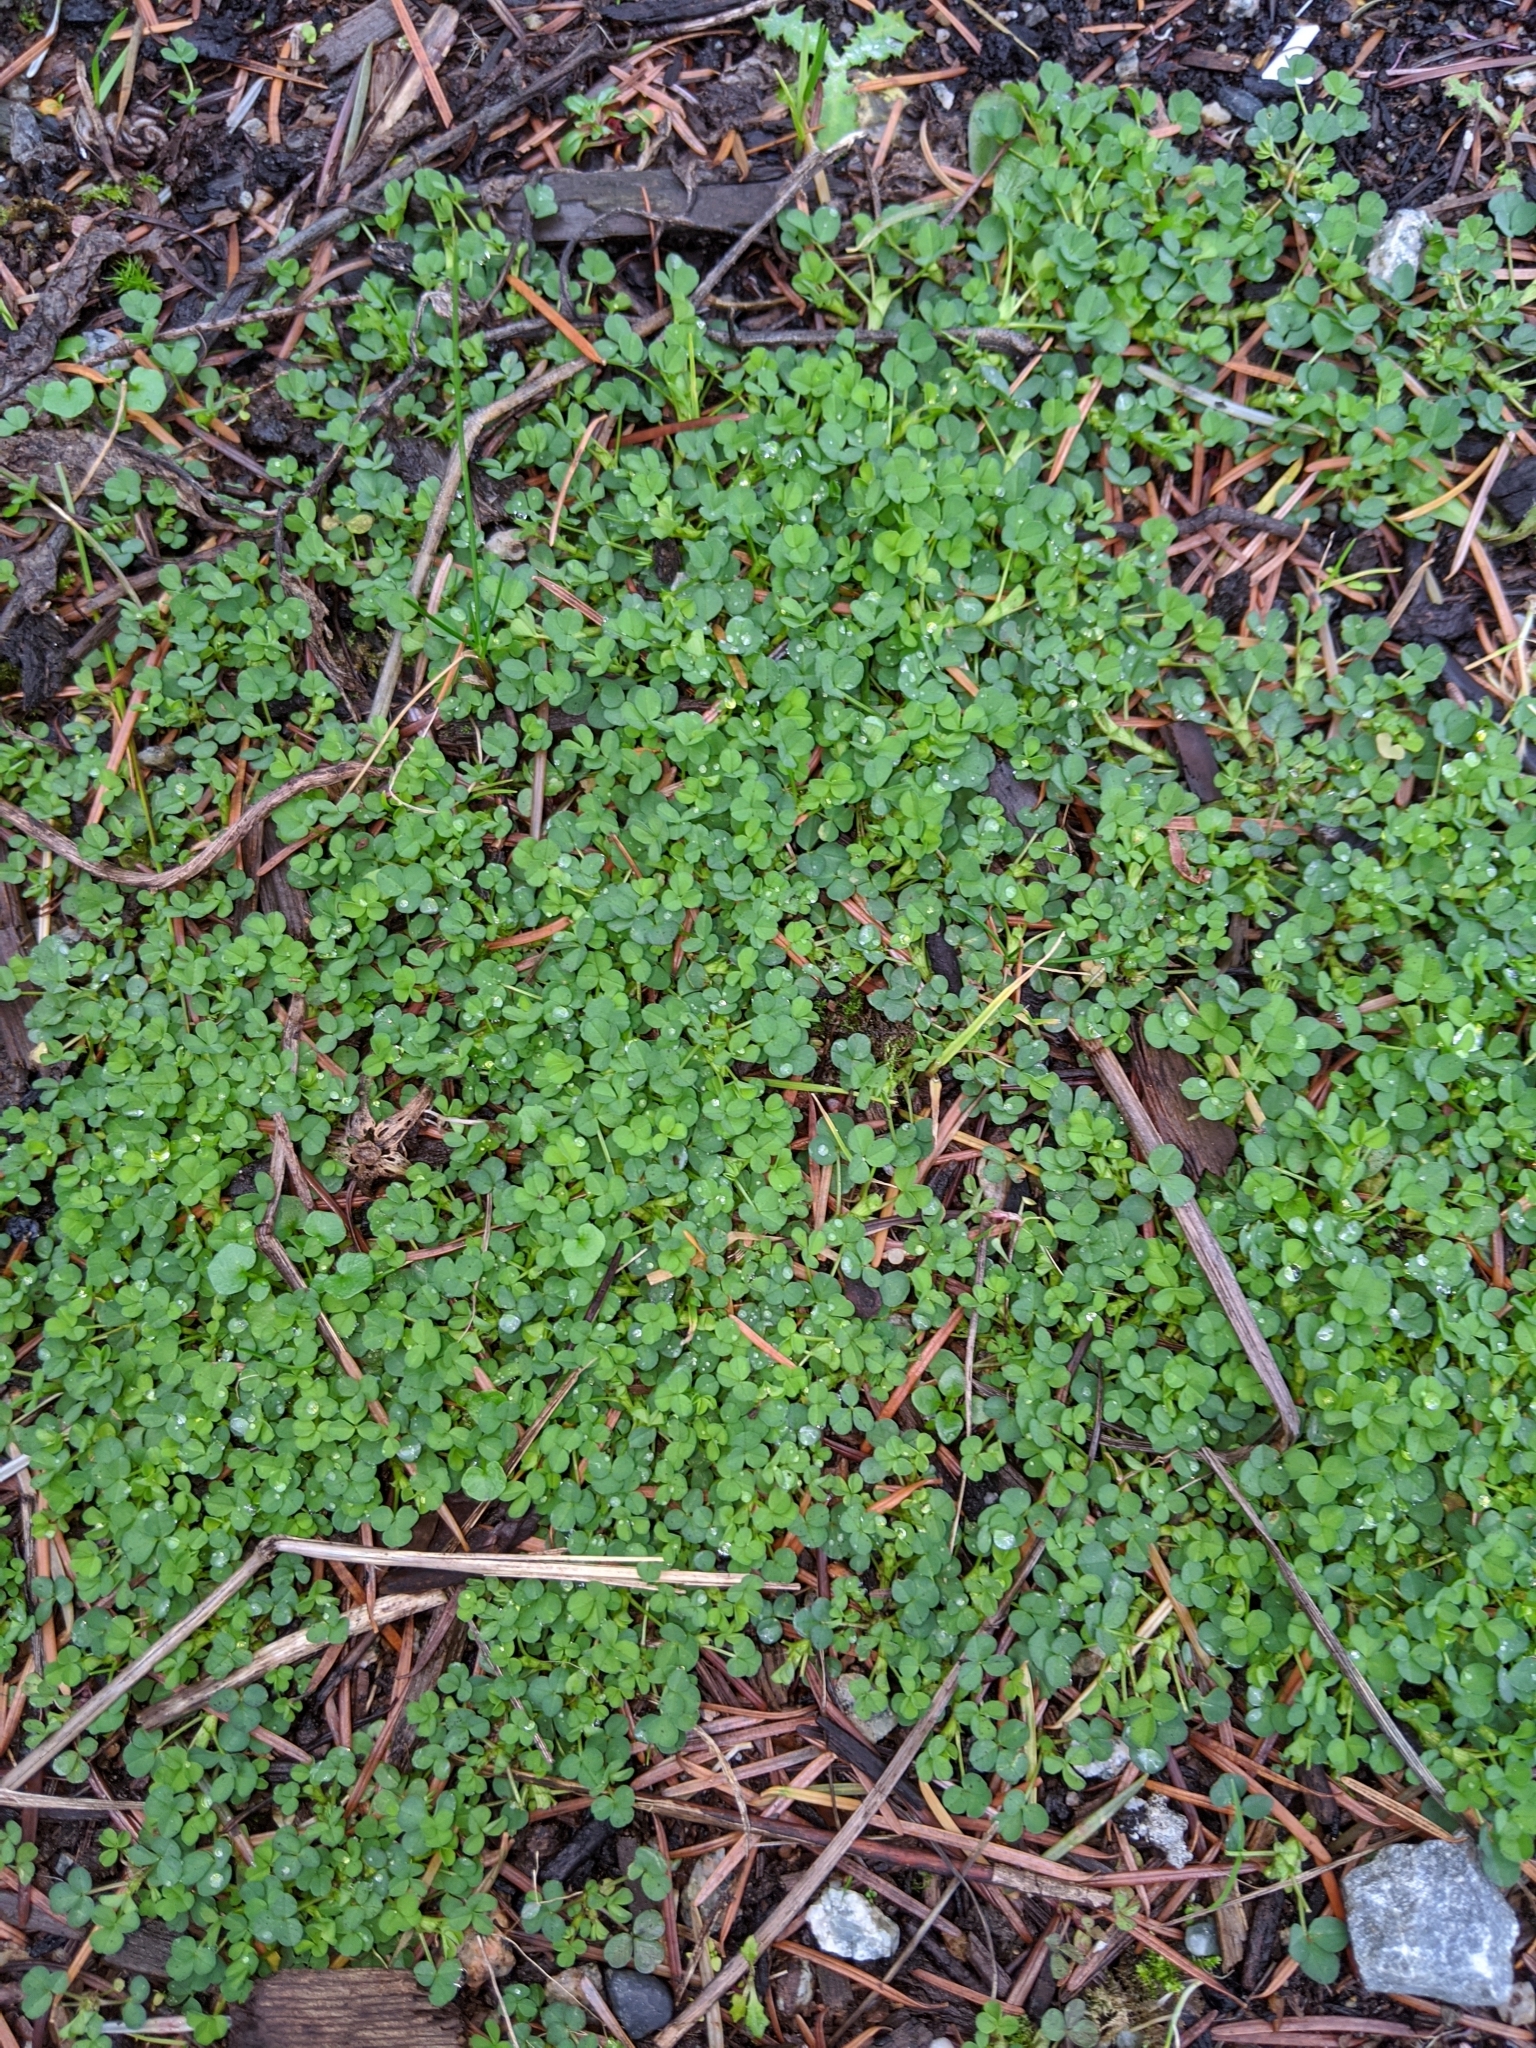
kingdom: Plantae
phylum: Tracheophyta
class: Magnoliopsida
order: Fabales
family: Fabaceae
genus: Trifolium
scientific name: Trifolium repens
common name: White clover
